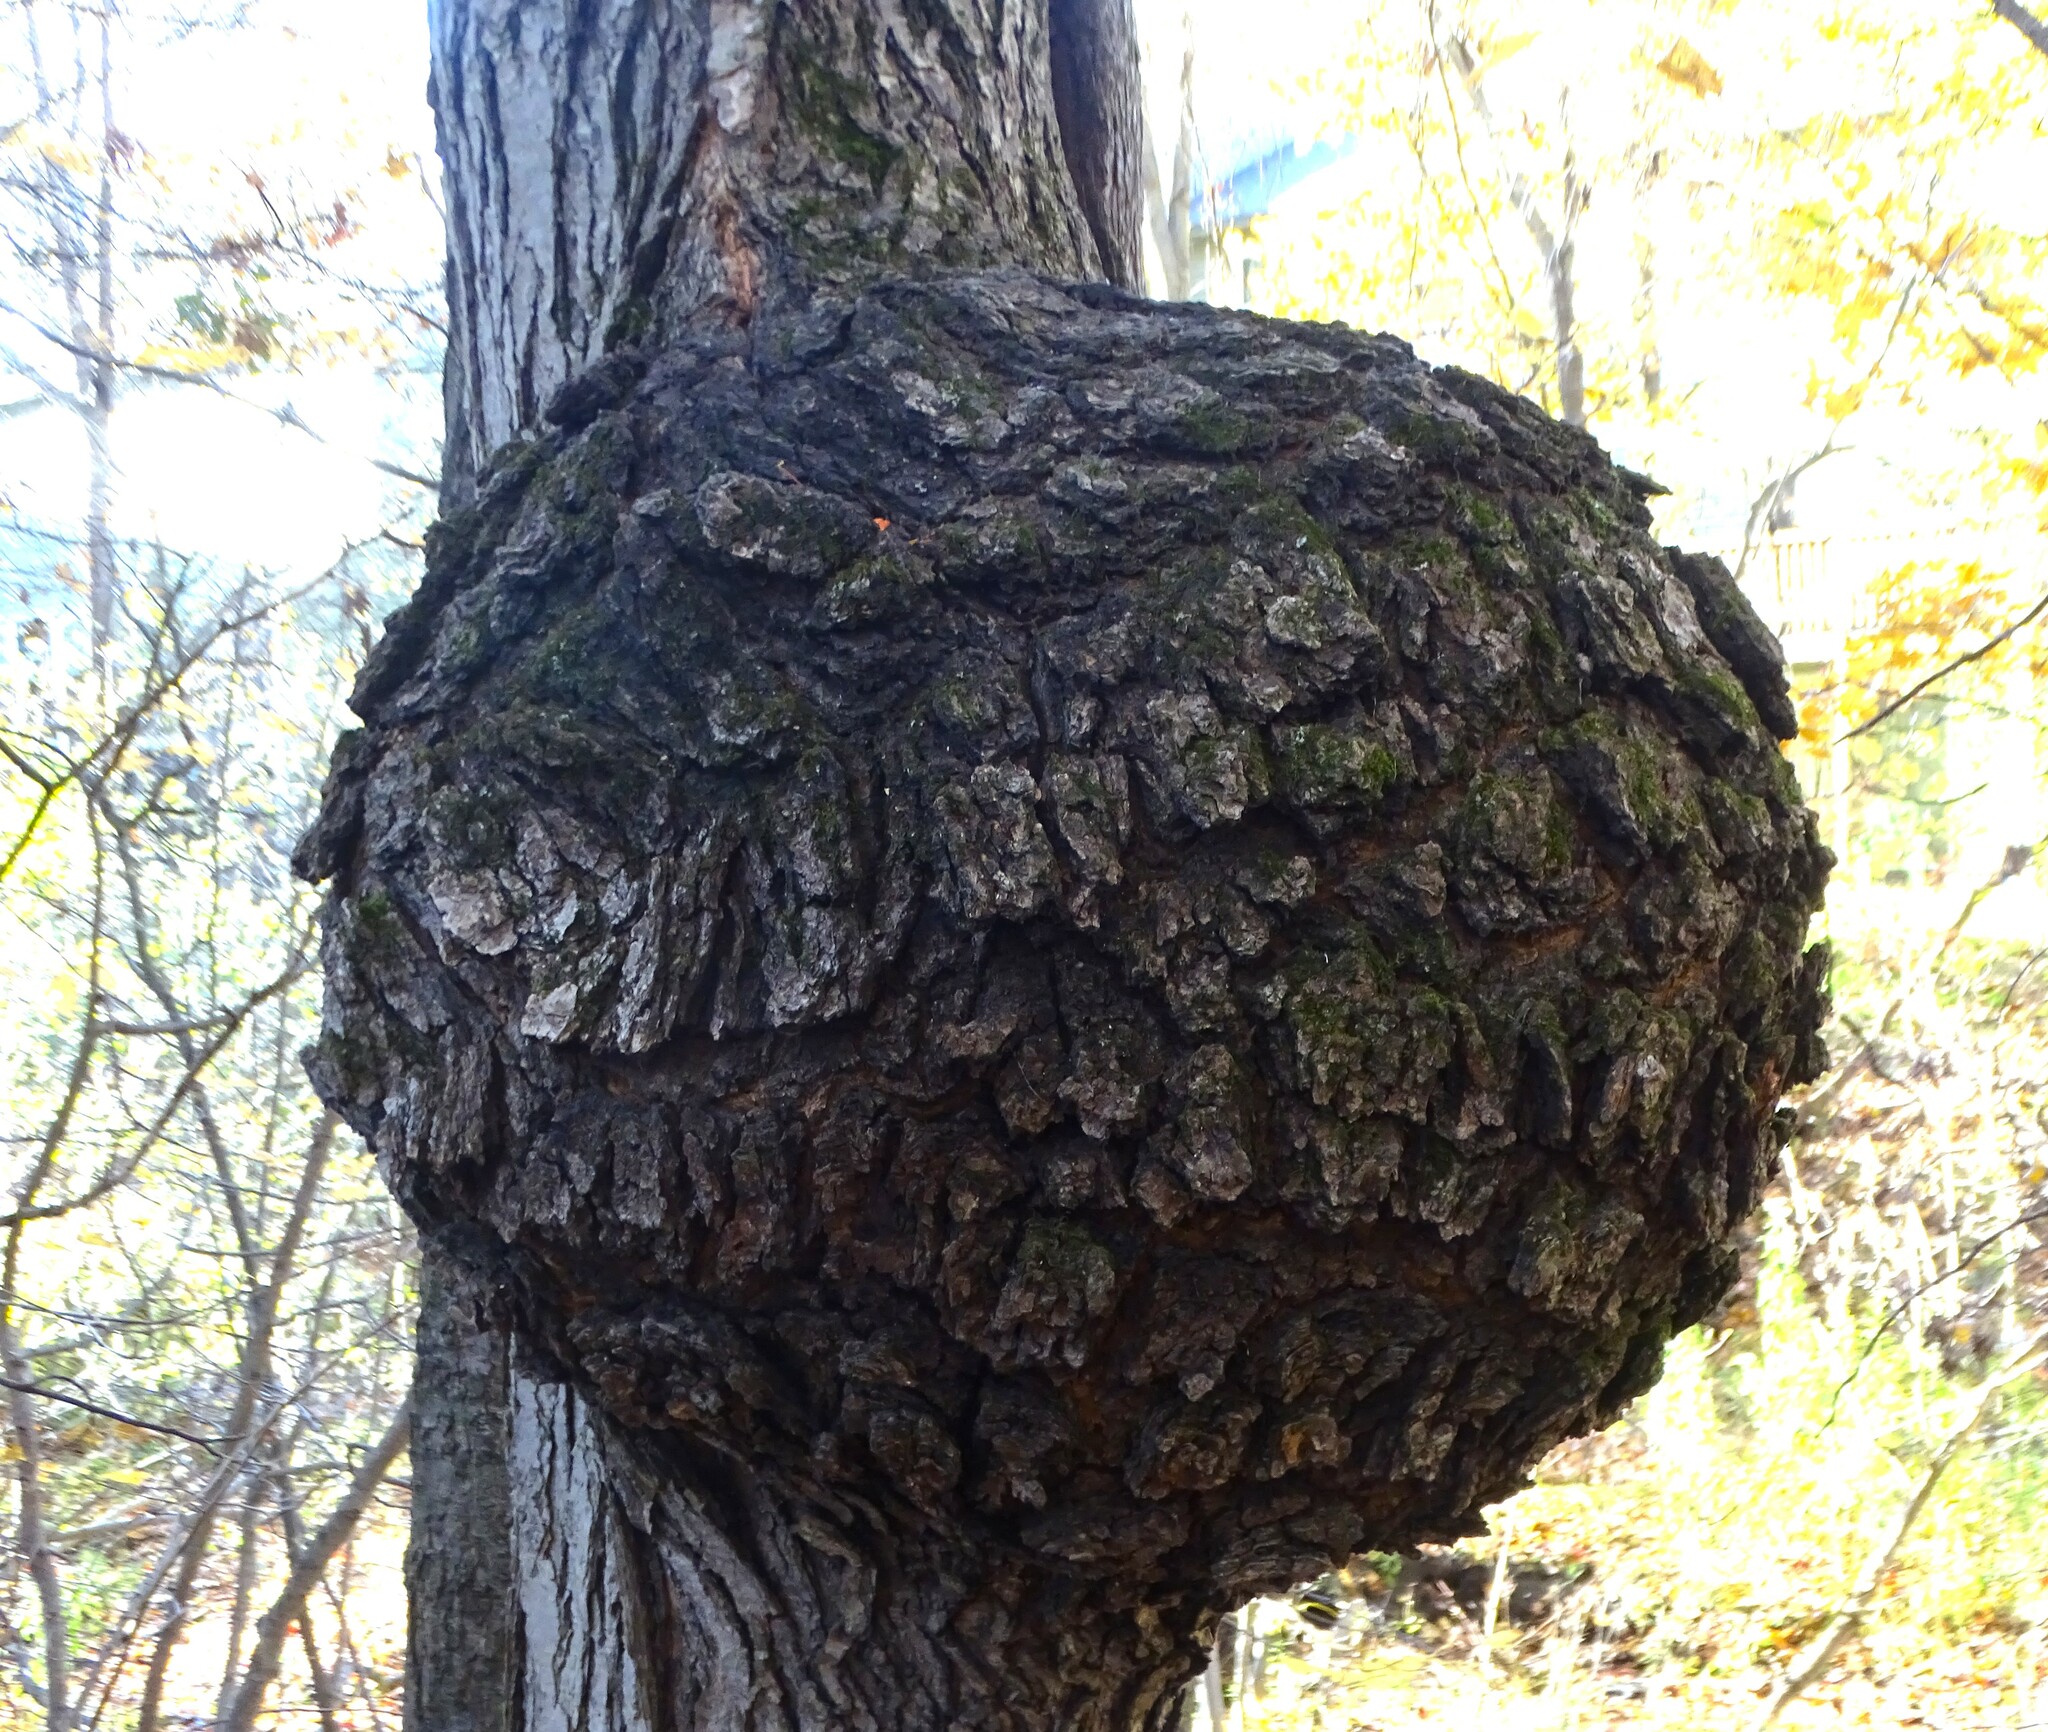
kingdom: Bacteria
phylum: Proteobacteria
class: Alphaproteobacteria
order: Rhizobiales
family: Rhizobiaceae
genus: Rhizobium
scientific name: Rhizobium Agrobacterium radiobacter
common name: Bacterial crown gall
